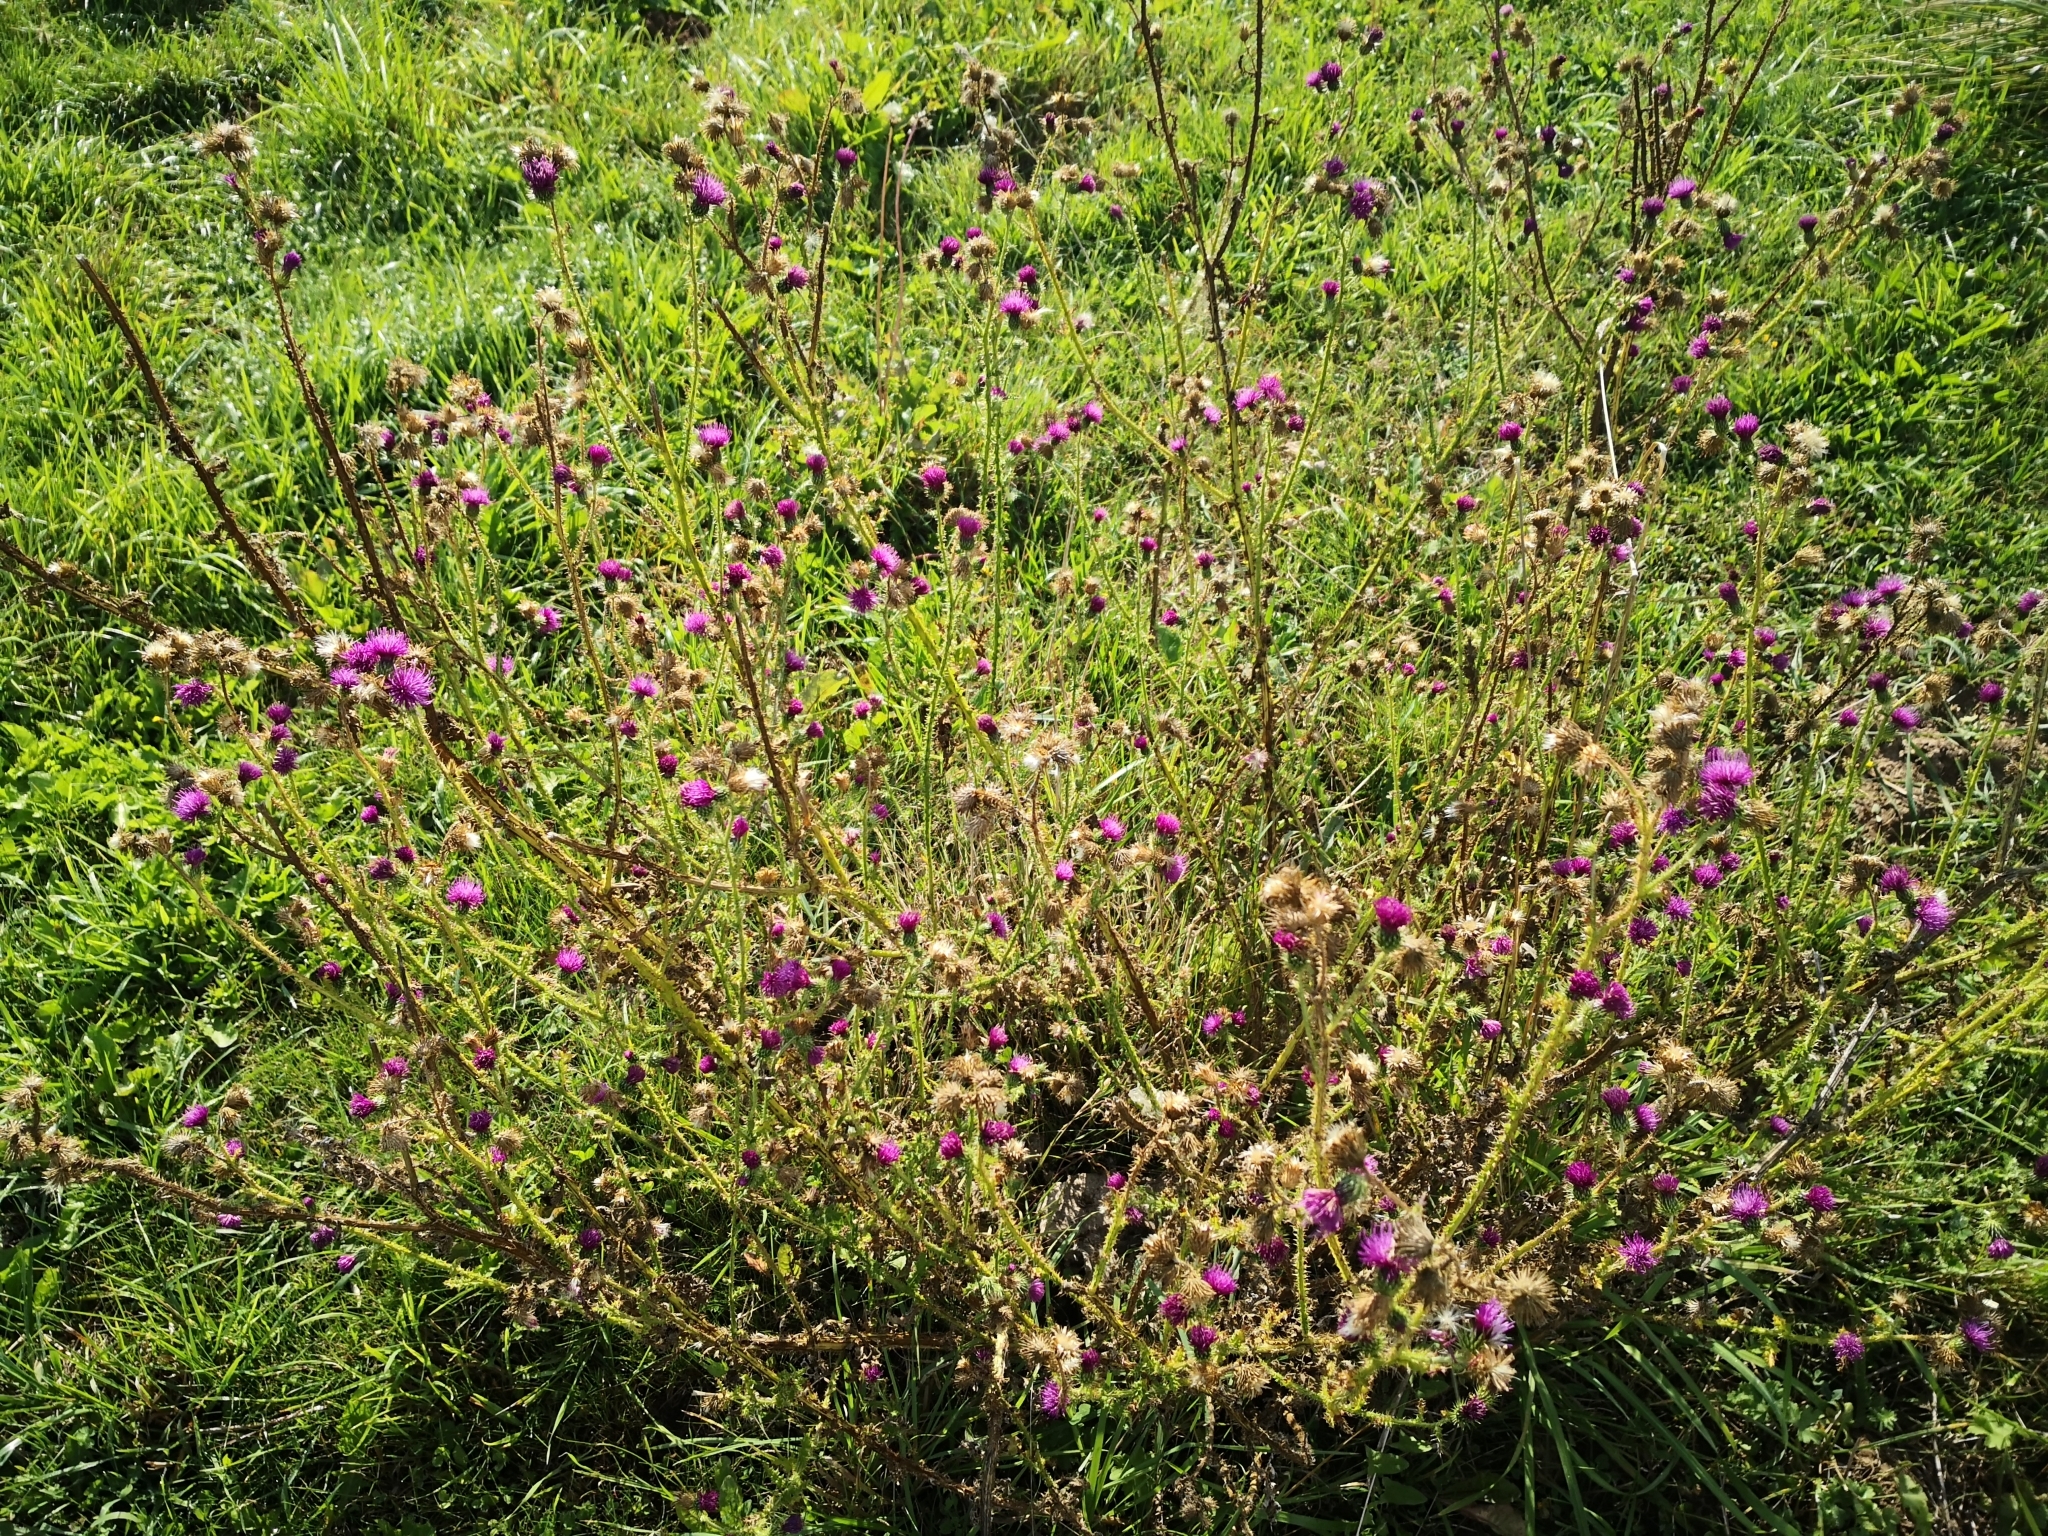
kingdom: Plantae
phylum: Tracheophyta
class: Magnoliopsida
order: Asterales
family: Asteraceae
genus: Cirsium
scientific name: Cirsium palustre
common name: Marsh thistle
